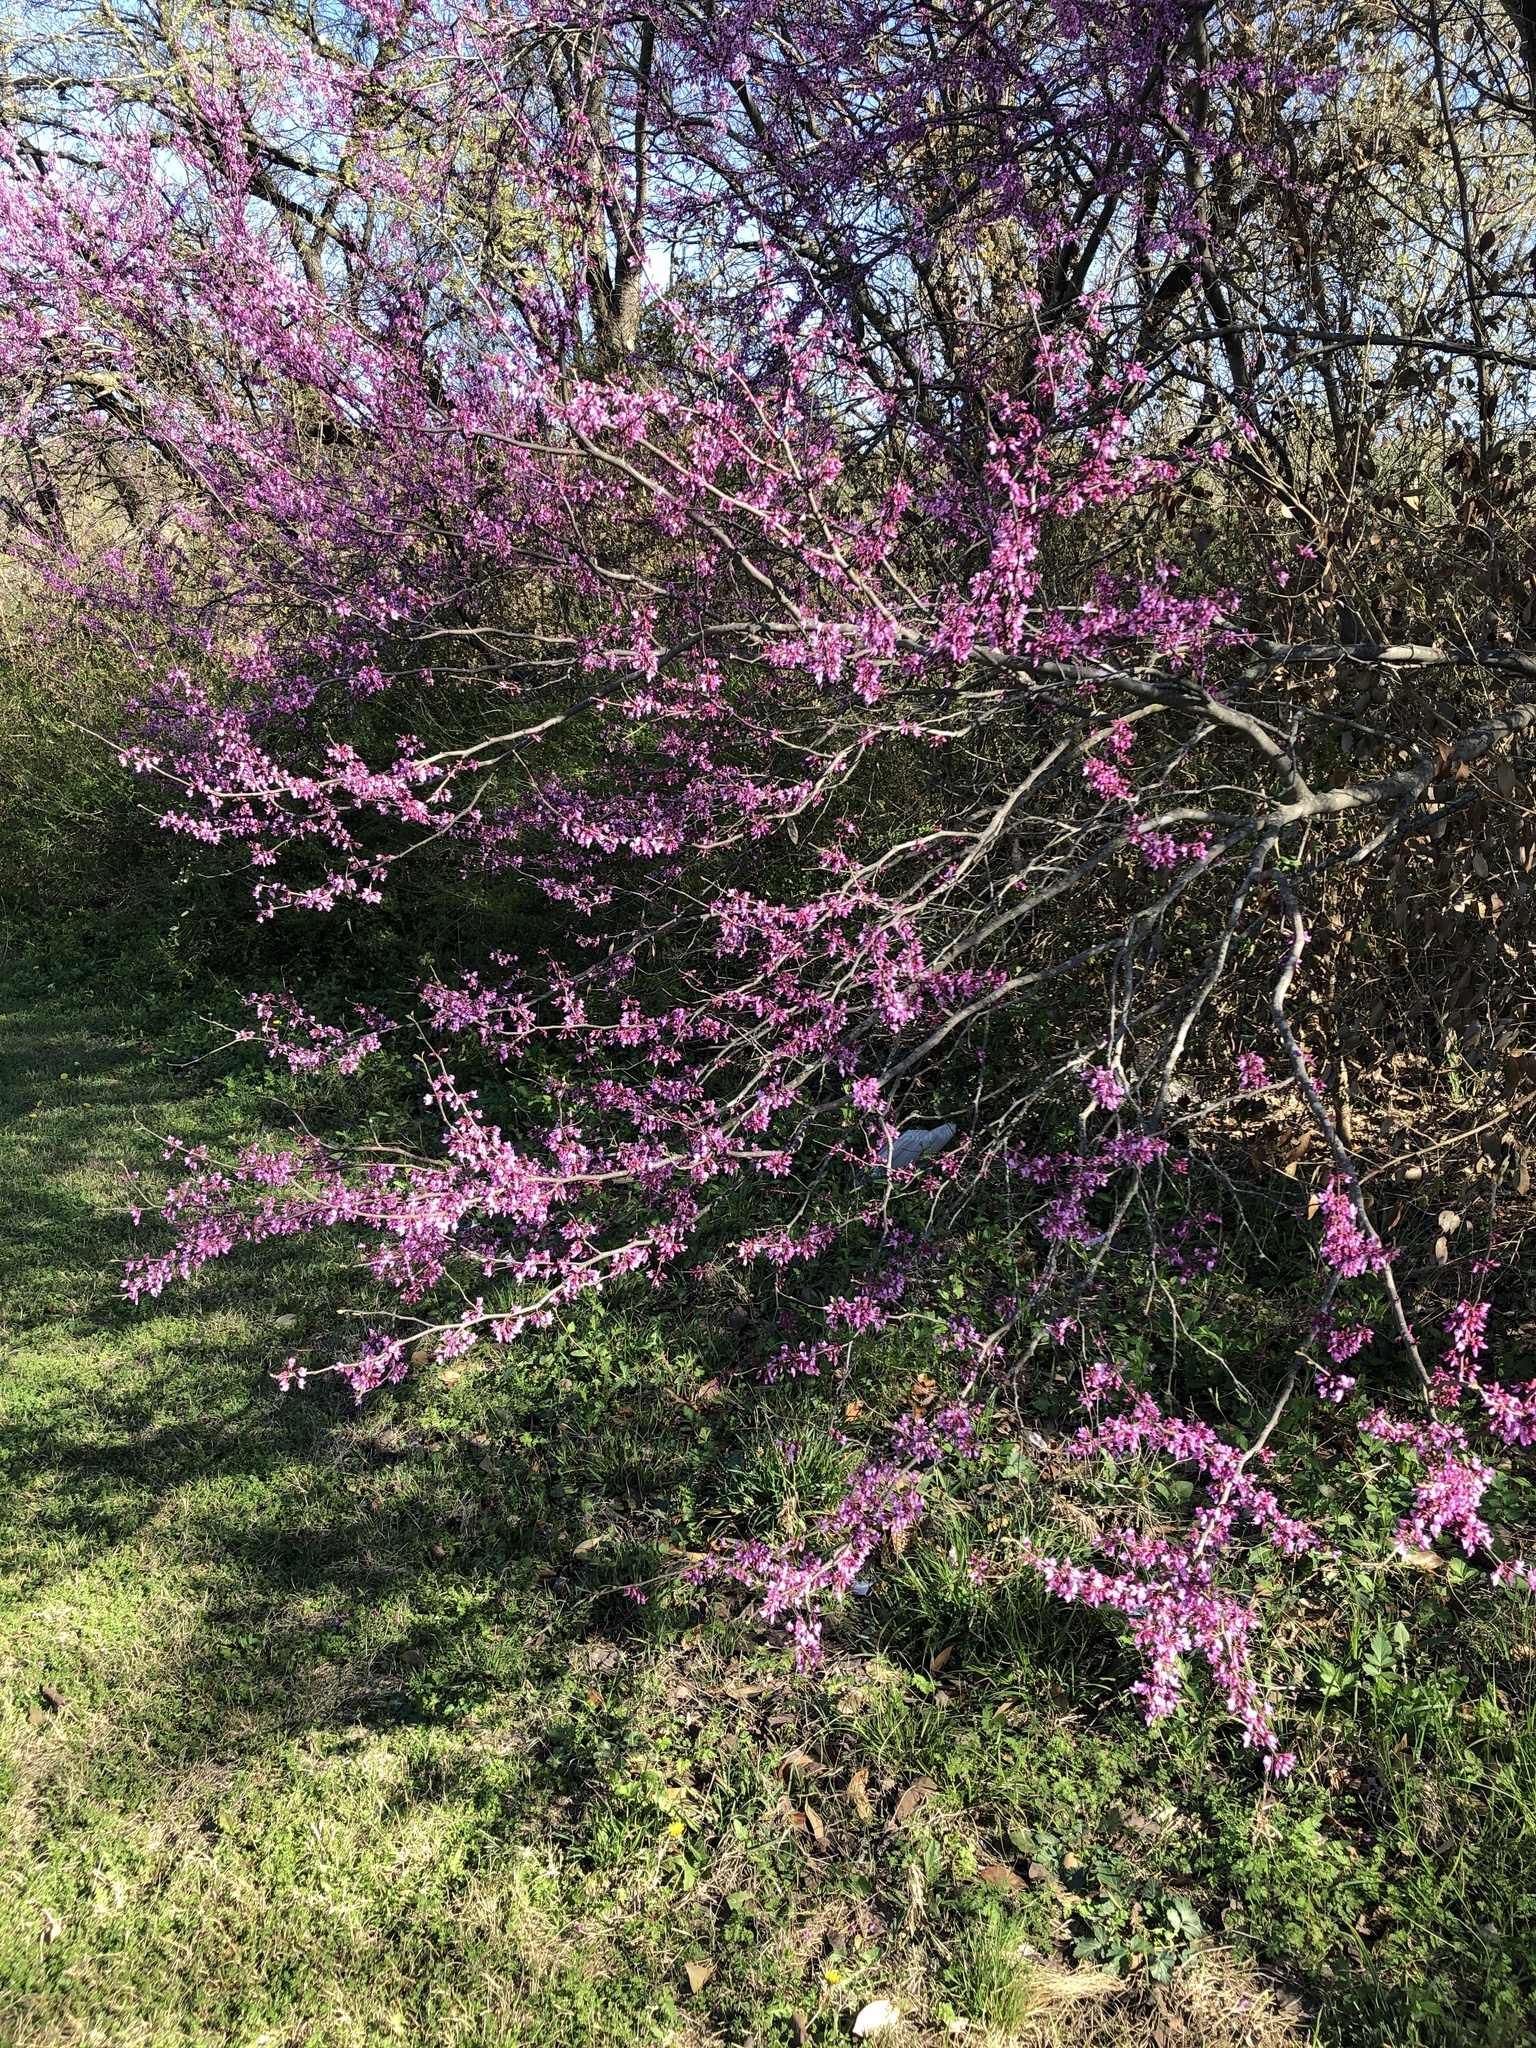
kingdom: Plantae
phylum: Tracheophyta
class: Magnoliopsida
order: Fabales
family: Fabaceae
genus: Cercis
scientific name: Cercis canadensis
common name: Eastern redbud
